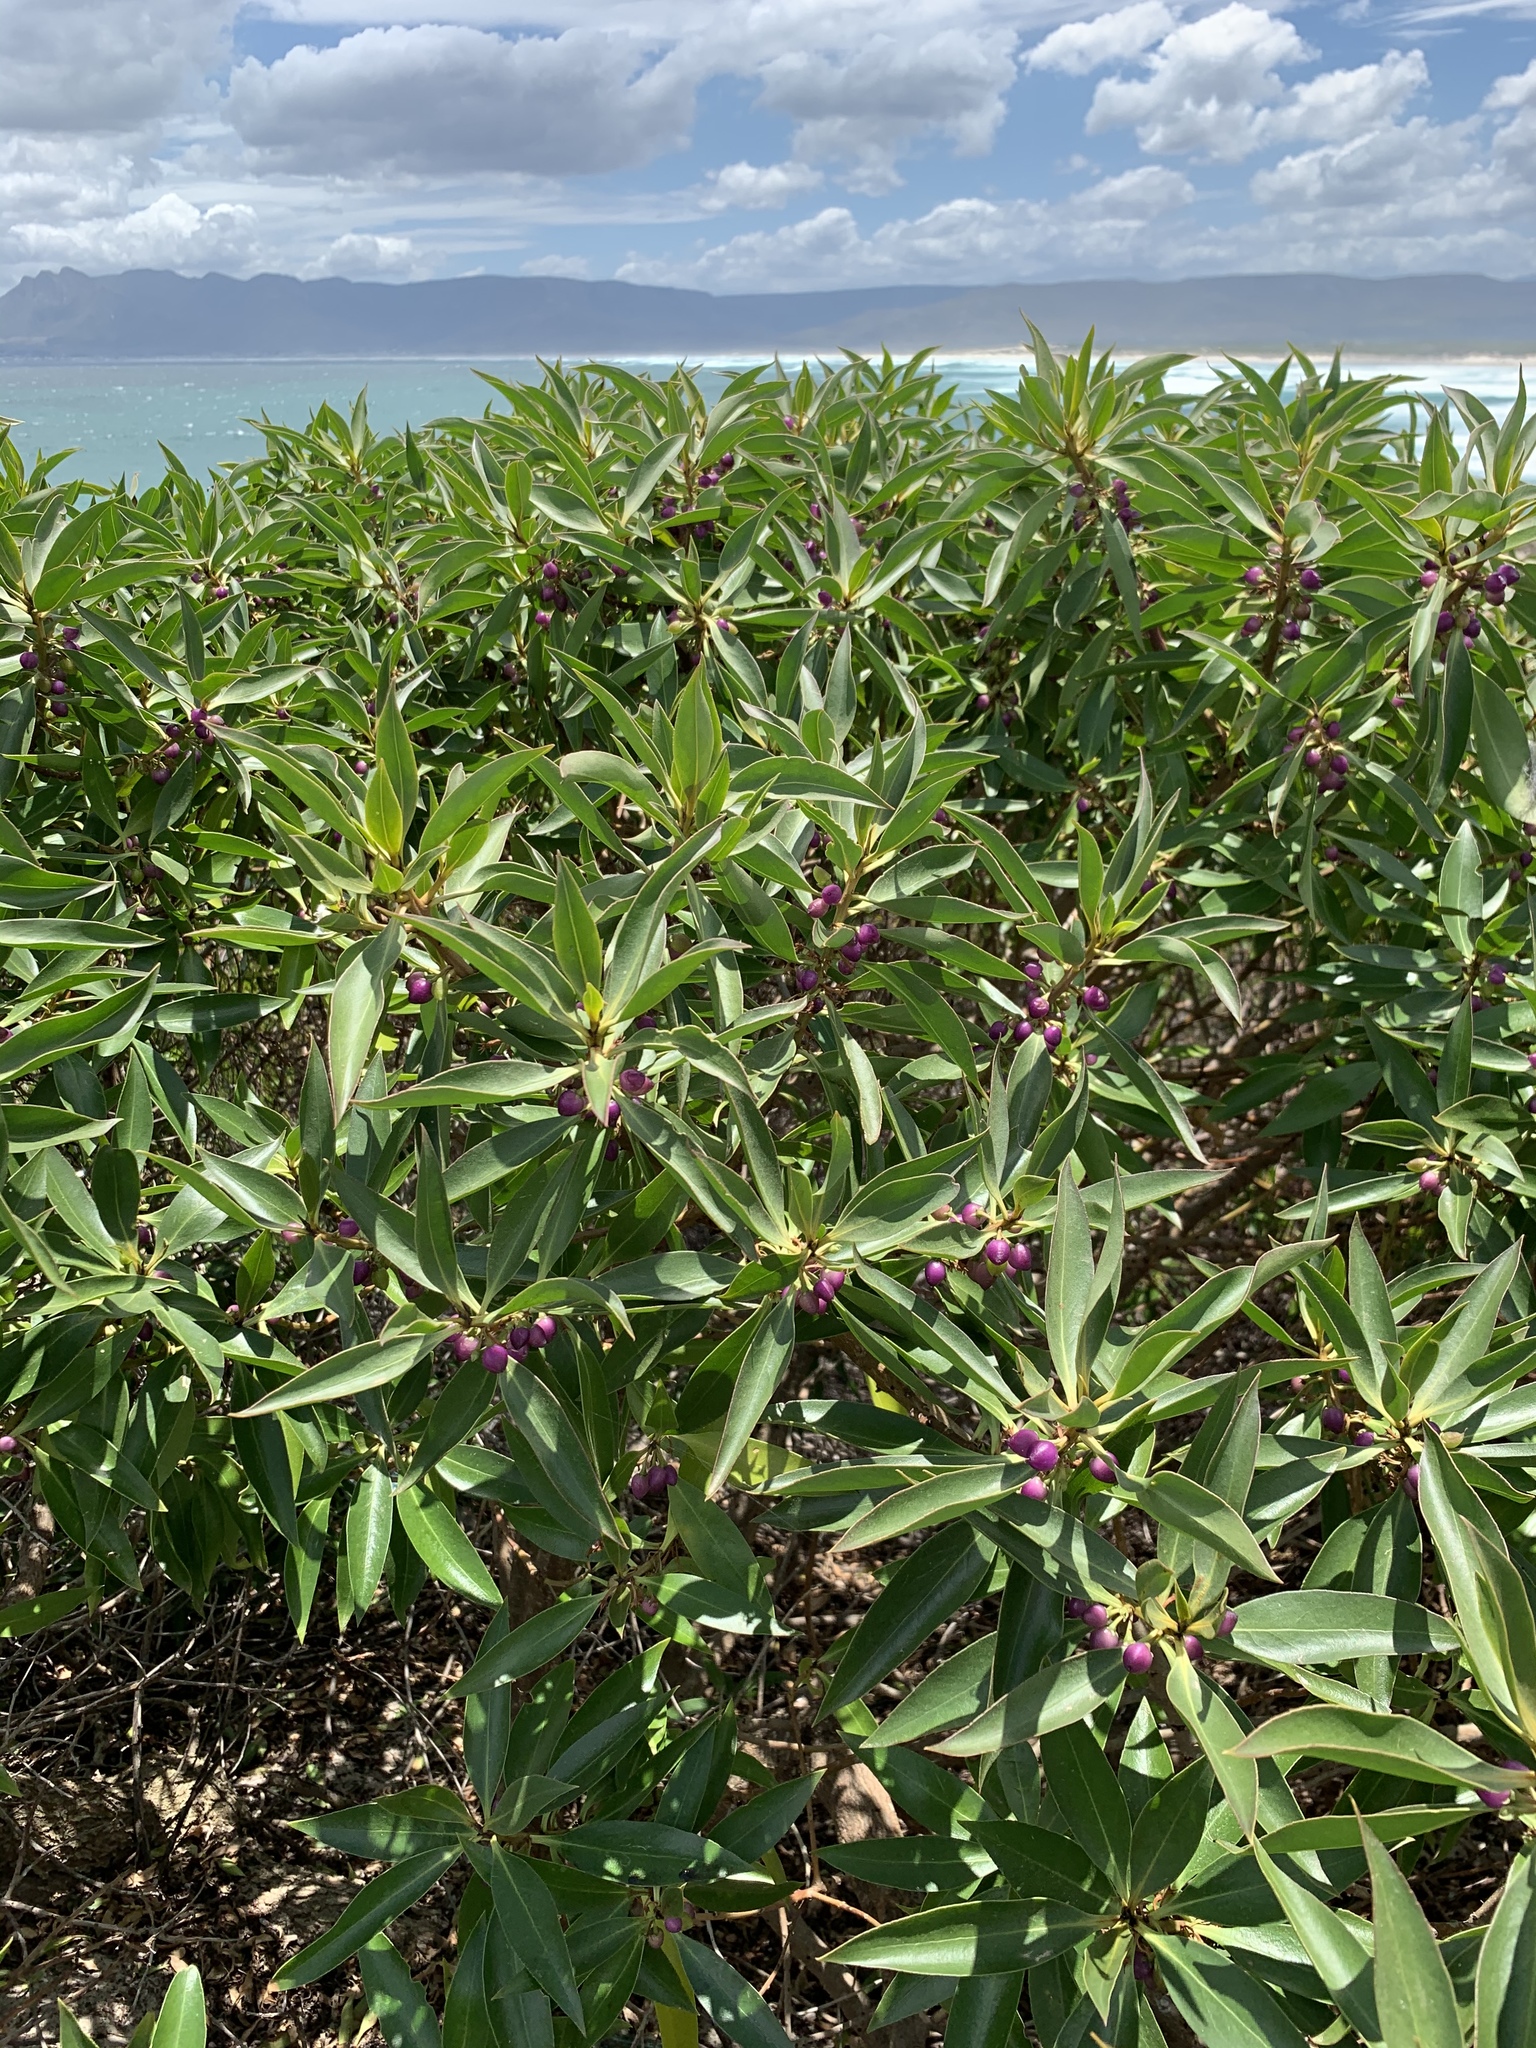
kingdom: Plantae
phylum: Tracheophyta
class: Magnoliopsida
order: Lamiales
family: Scrophulariaceae
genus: Myoporum
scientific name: Myoporum insulare
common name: Common boobialla
